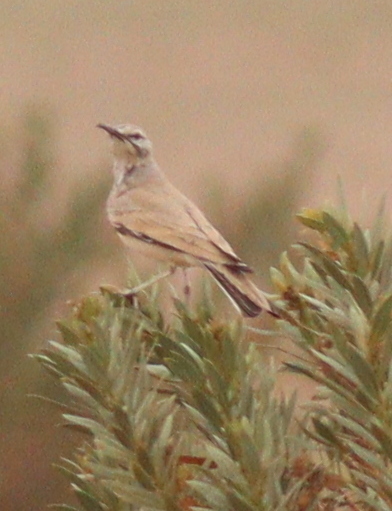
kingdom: Animalia
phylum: Chordata
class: Aves
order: Passeriformes
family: Alaudidae
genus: Alaemon
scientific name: Alaemon alaudipes
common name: Greater hoopoe-lark
